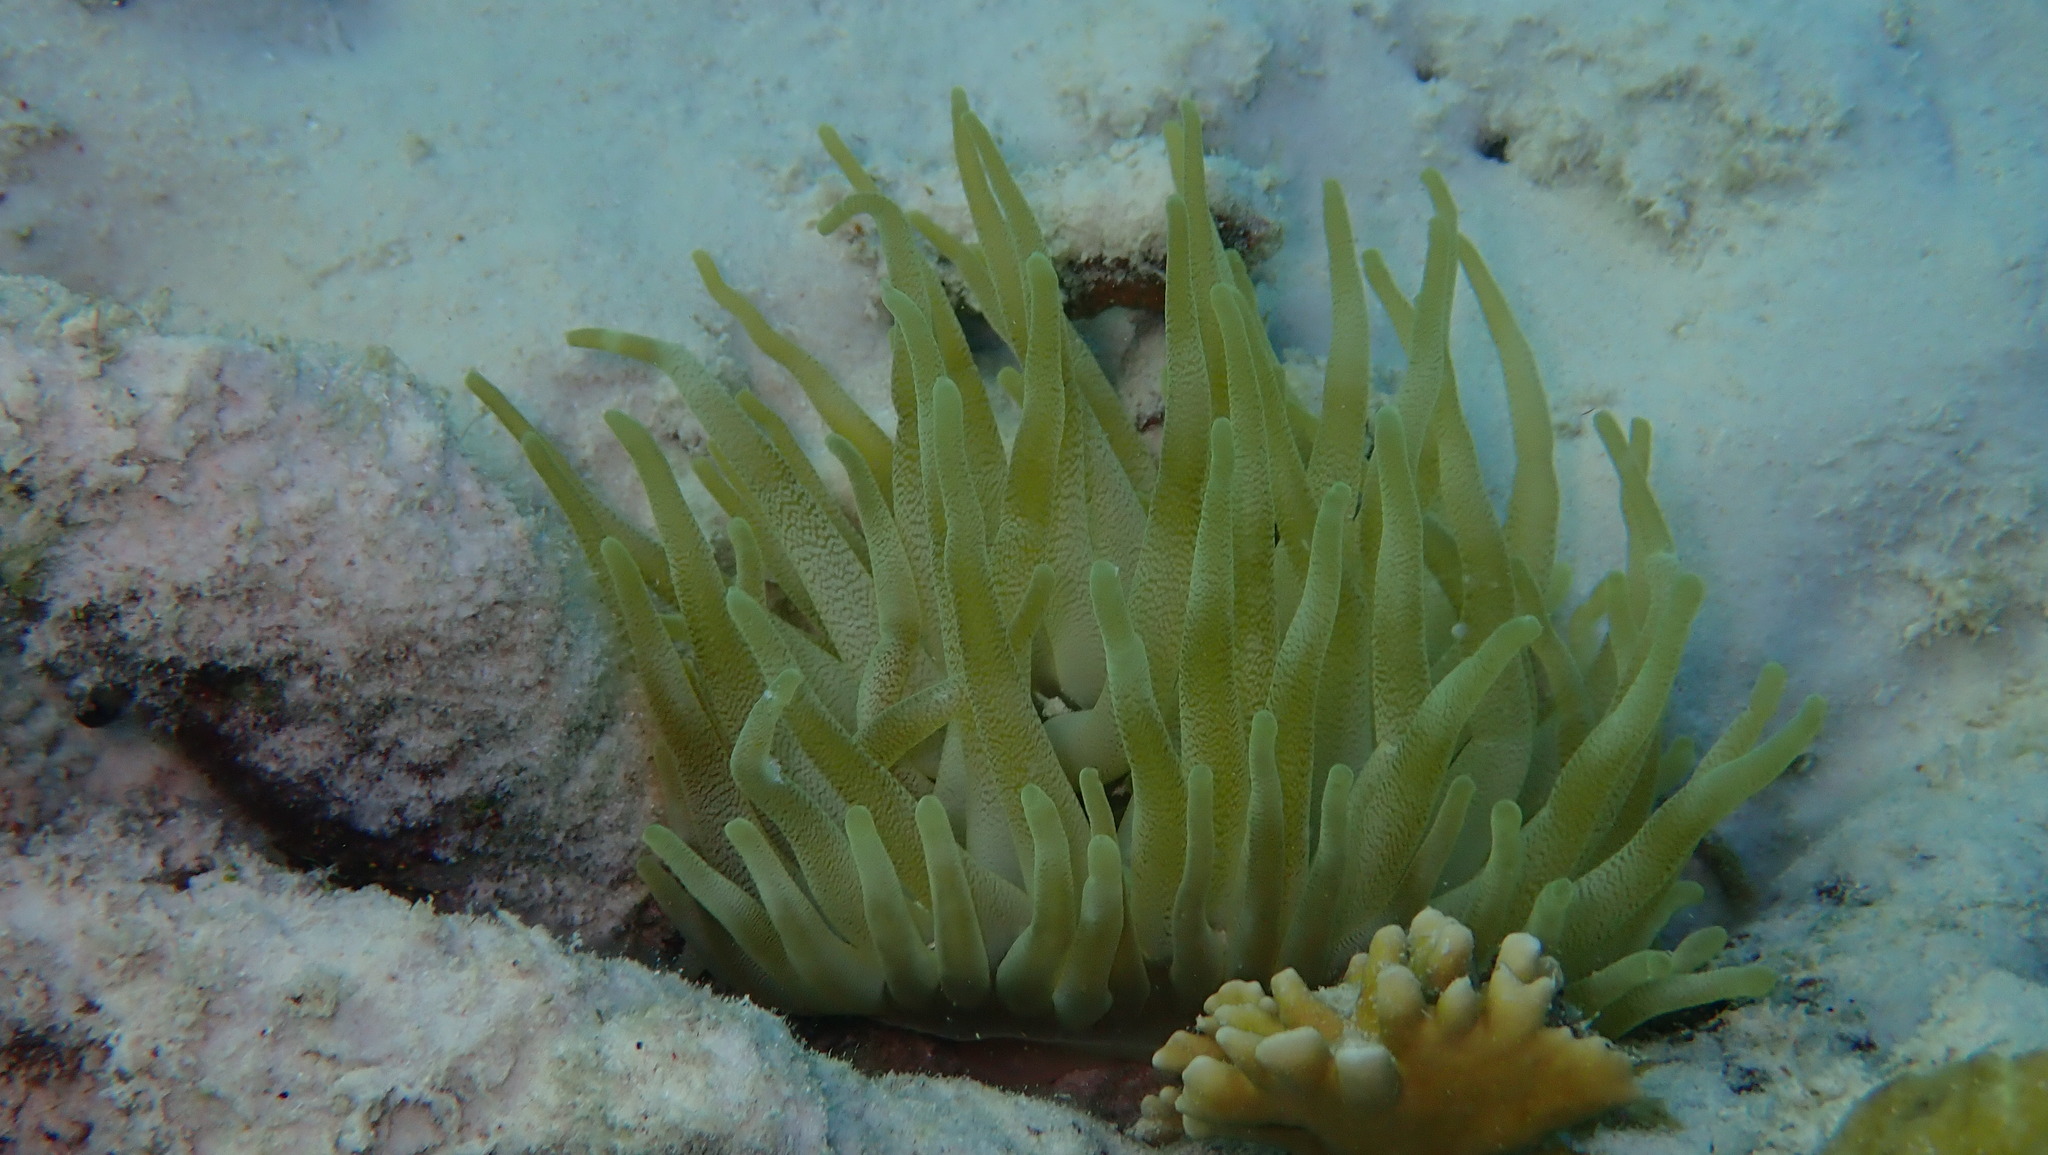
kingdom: Animalia
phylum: Cnidaria
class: Anthozoa
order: Actiniaria
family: Actiniidae
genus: Condylactis
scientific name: Condylactis gigantea
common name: Giant caribbean anemone
